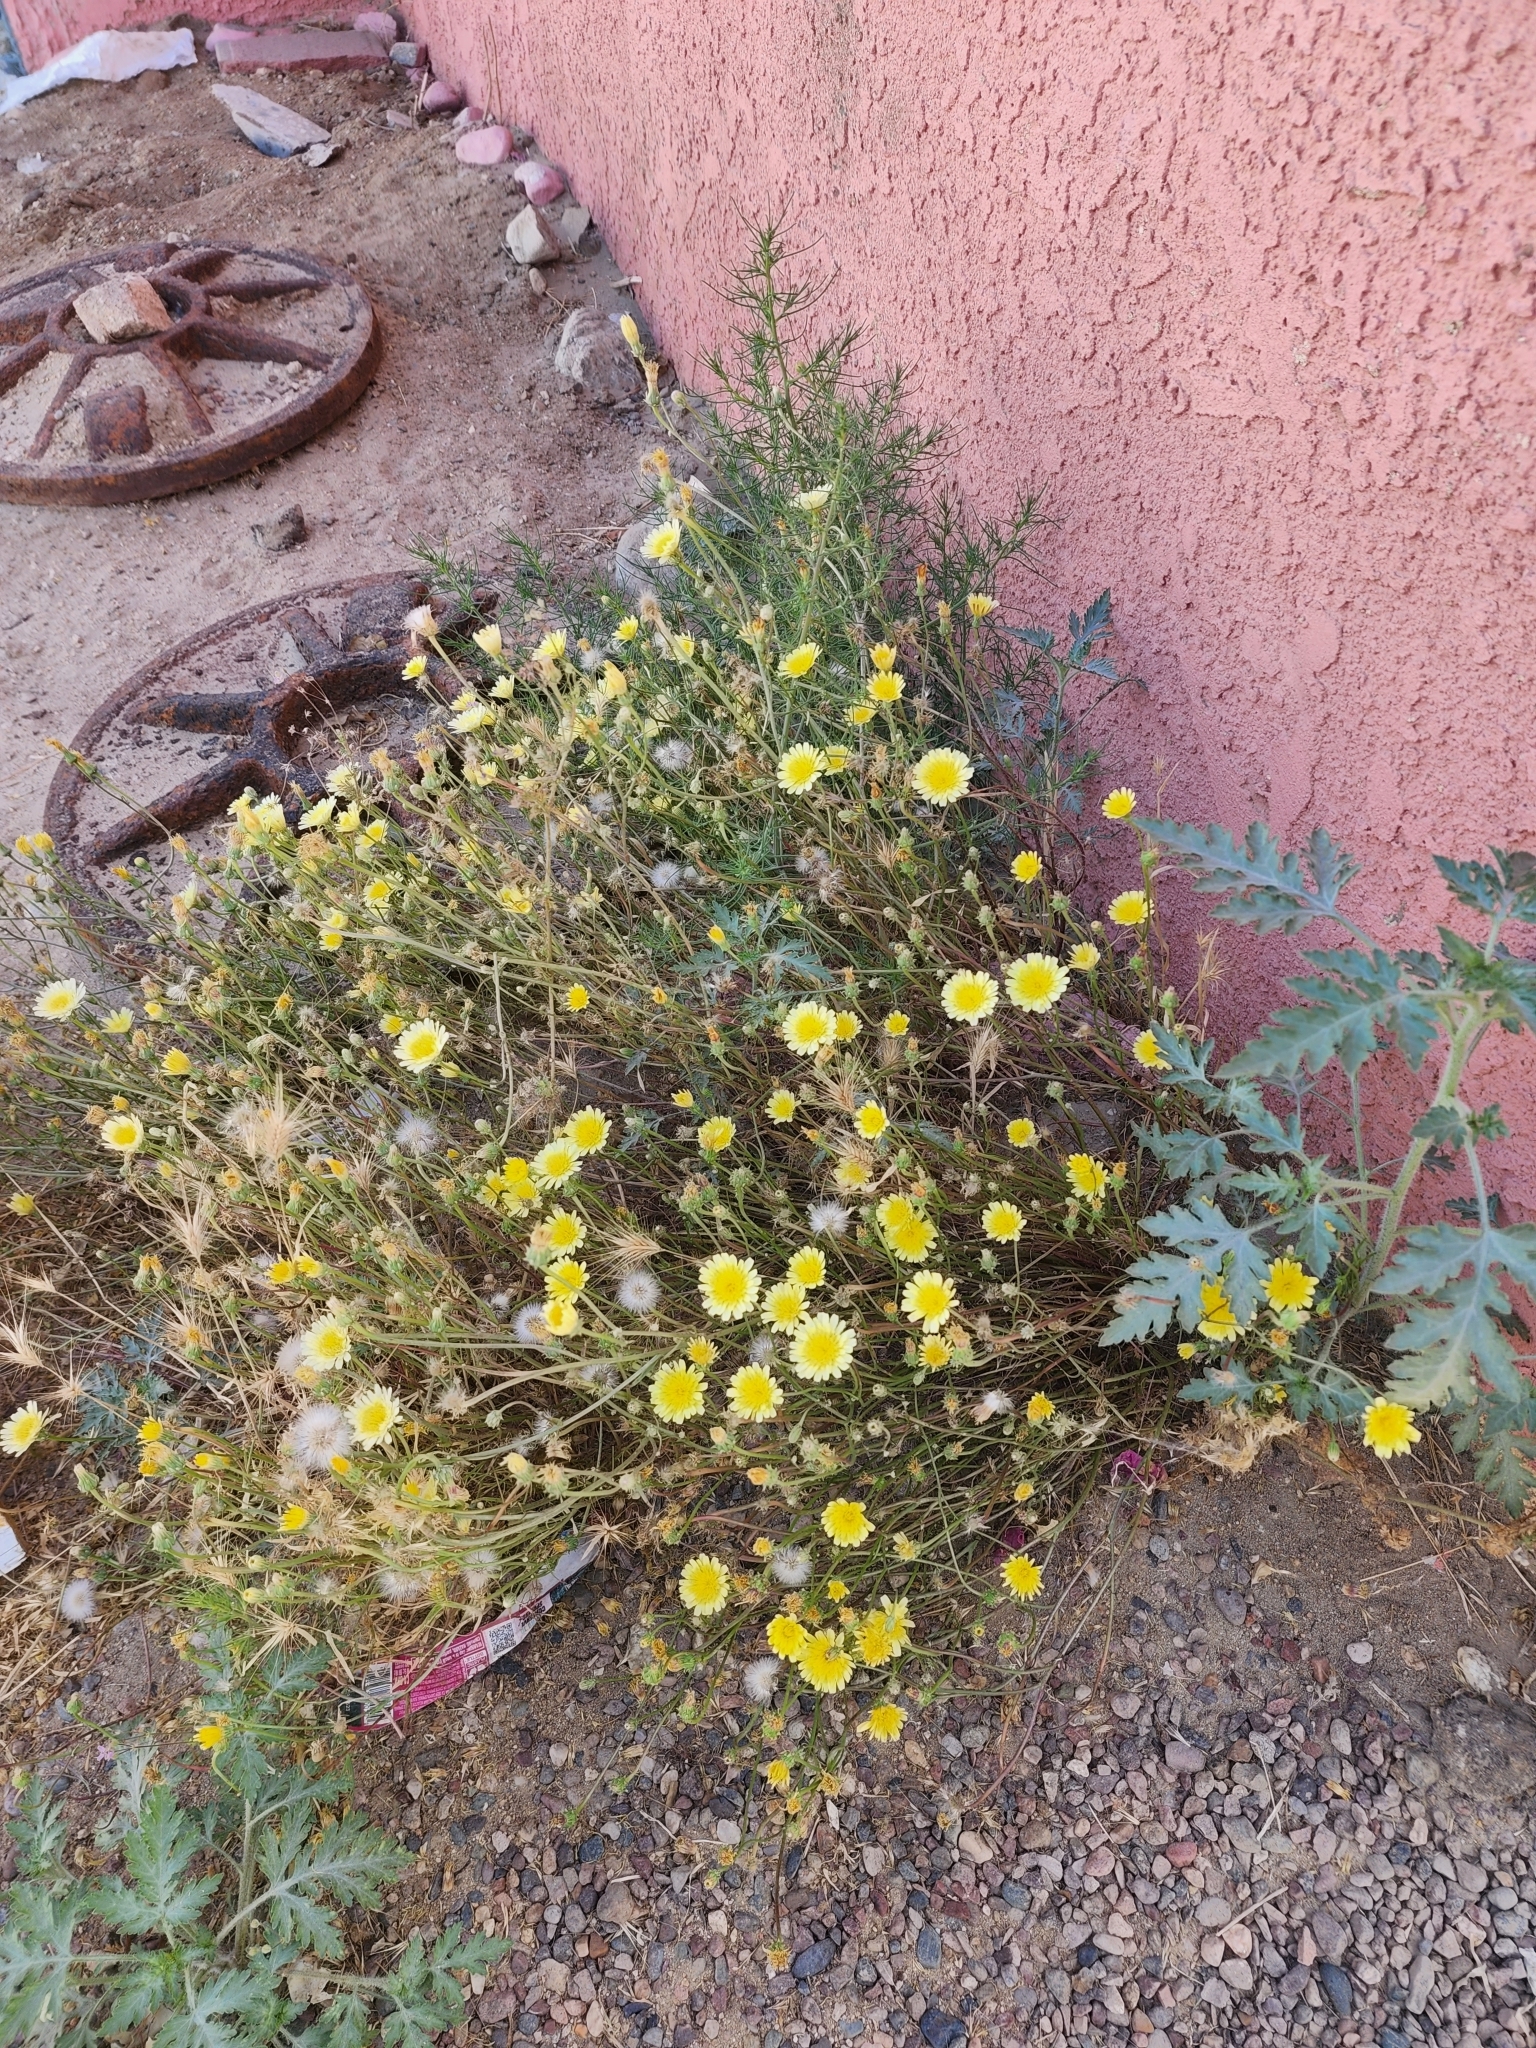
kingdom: Plantae
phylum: Tracheophyta
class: Magnoliopsida
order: Asterales
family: Asteraceae
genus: Malacothrix
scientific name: Malacothrix glabrata
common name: Smooth desert-dandelion
